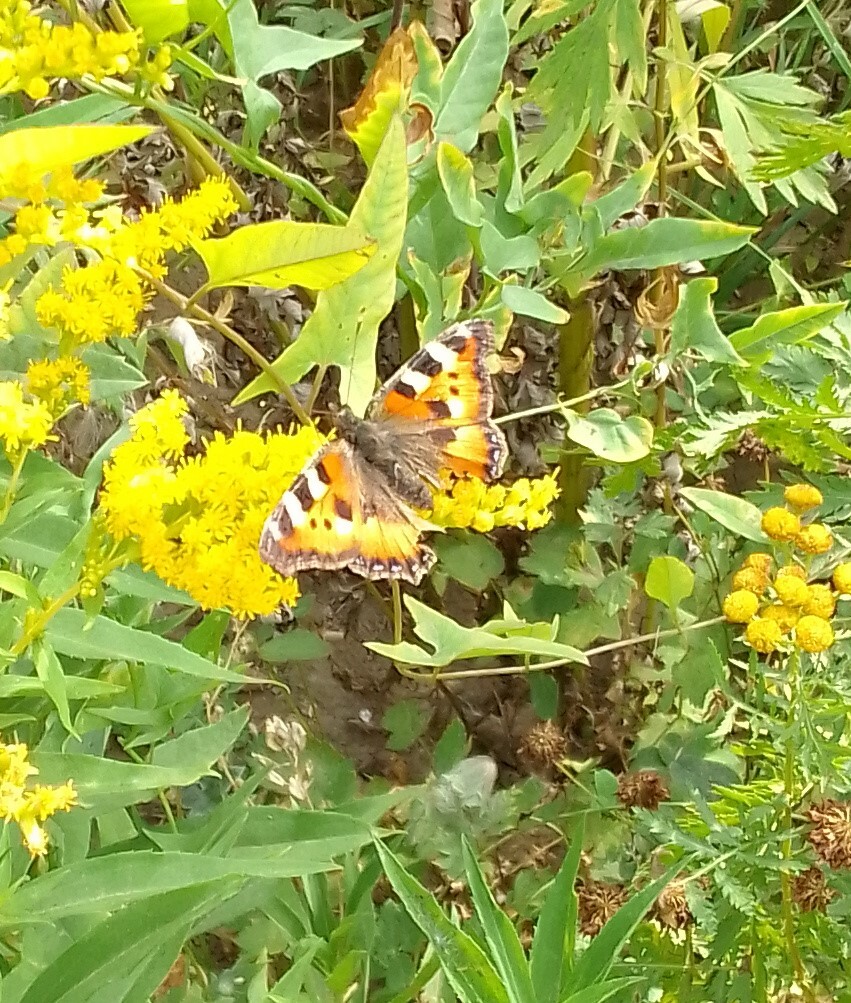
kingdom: Animalia
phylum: Arthropoda
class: Insecta
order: Lepidoptera
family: Nymphalidae
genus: Aglais
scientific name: Aglais urticae
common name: Small tortoiseshell
